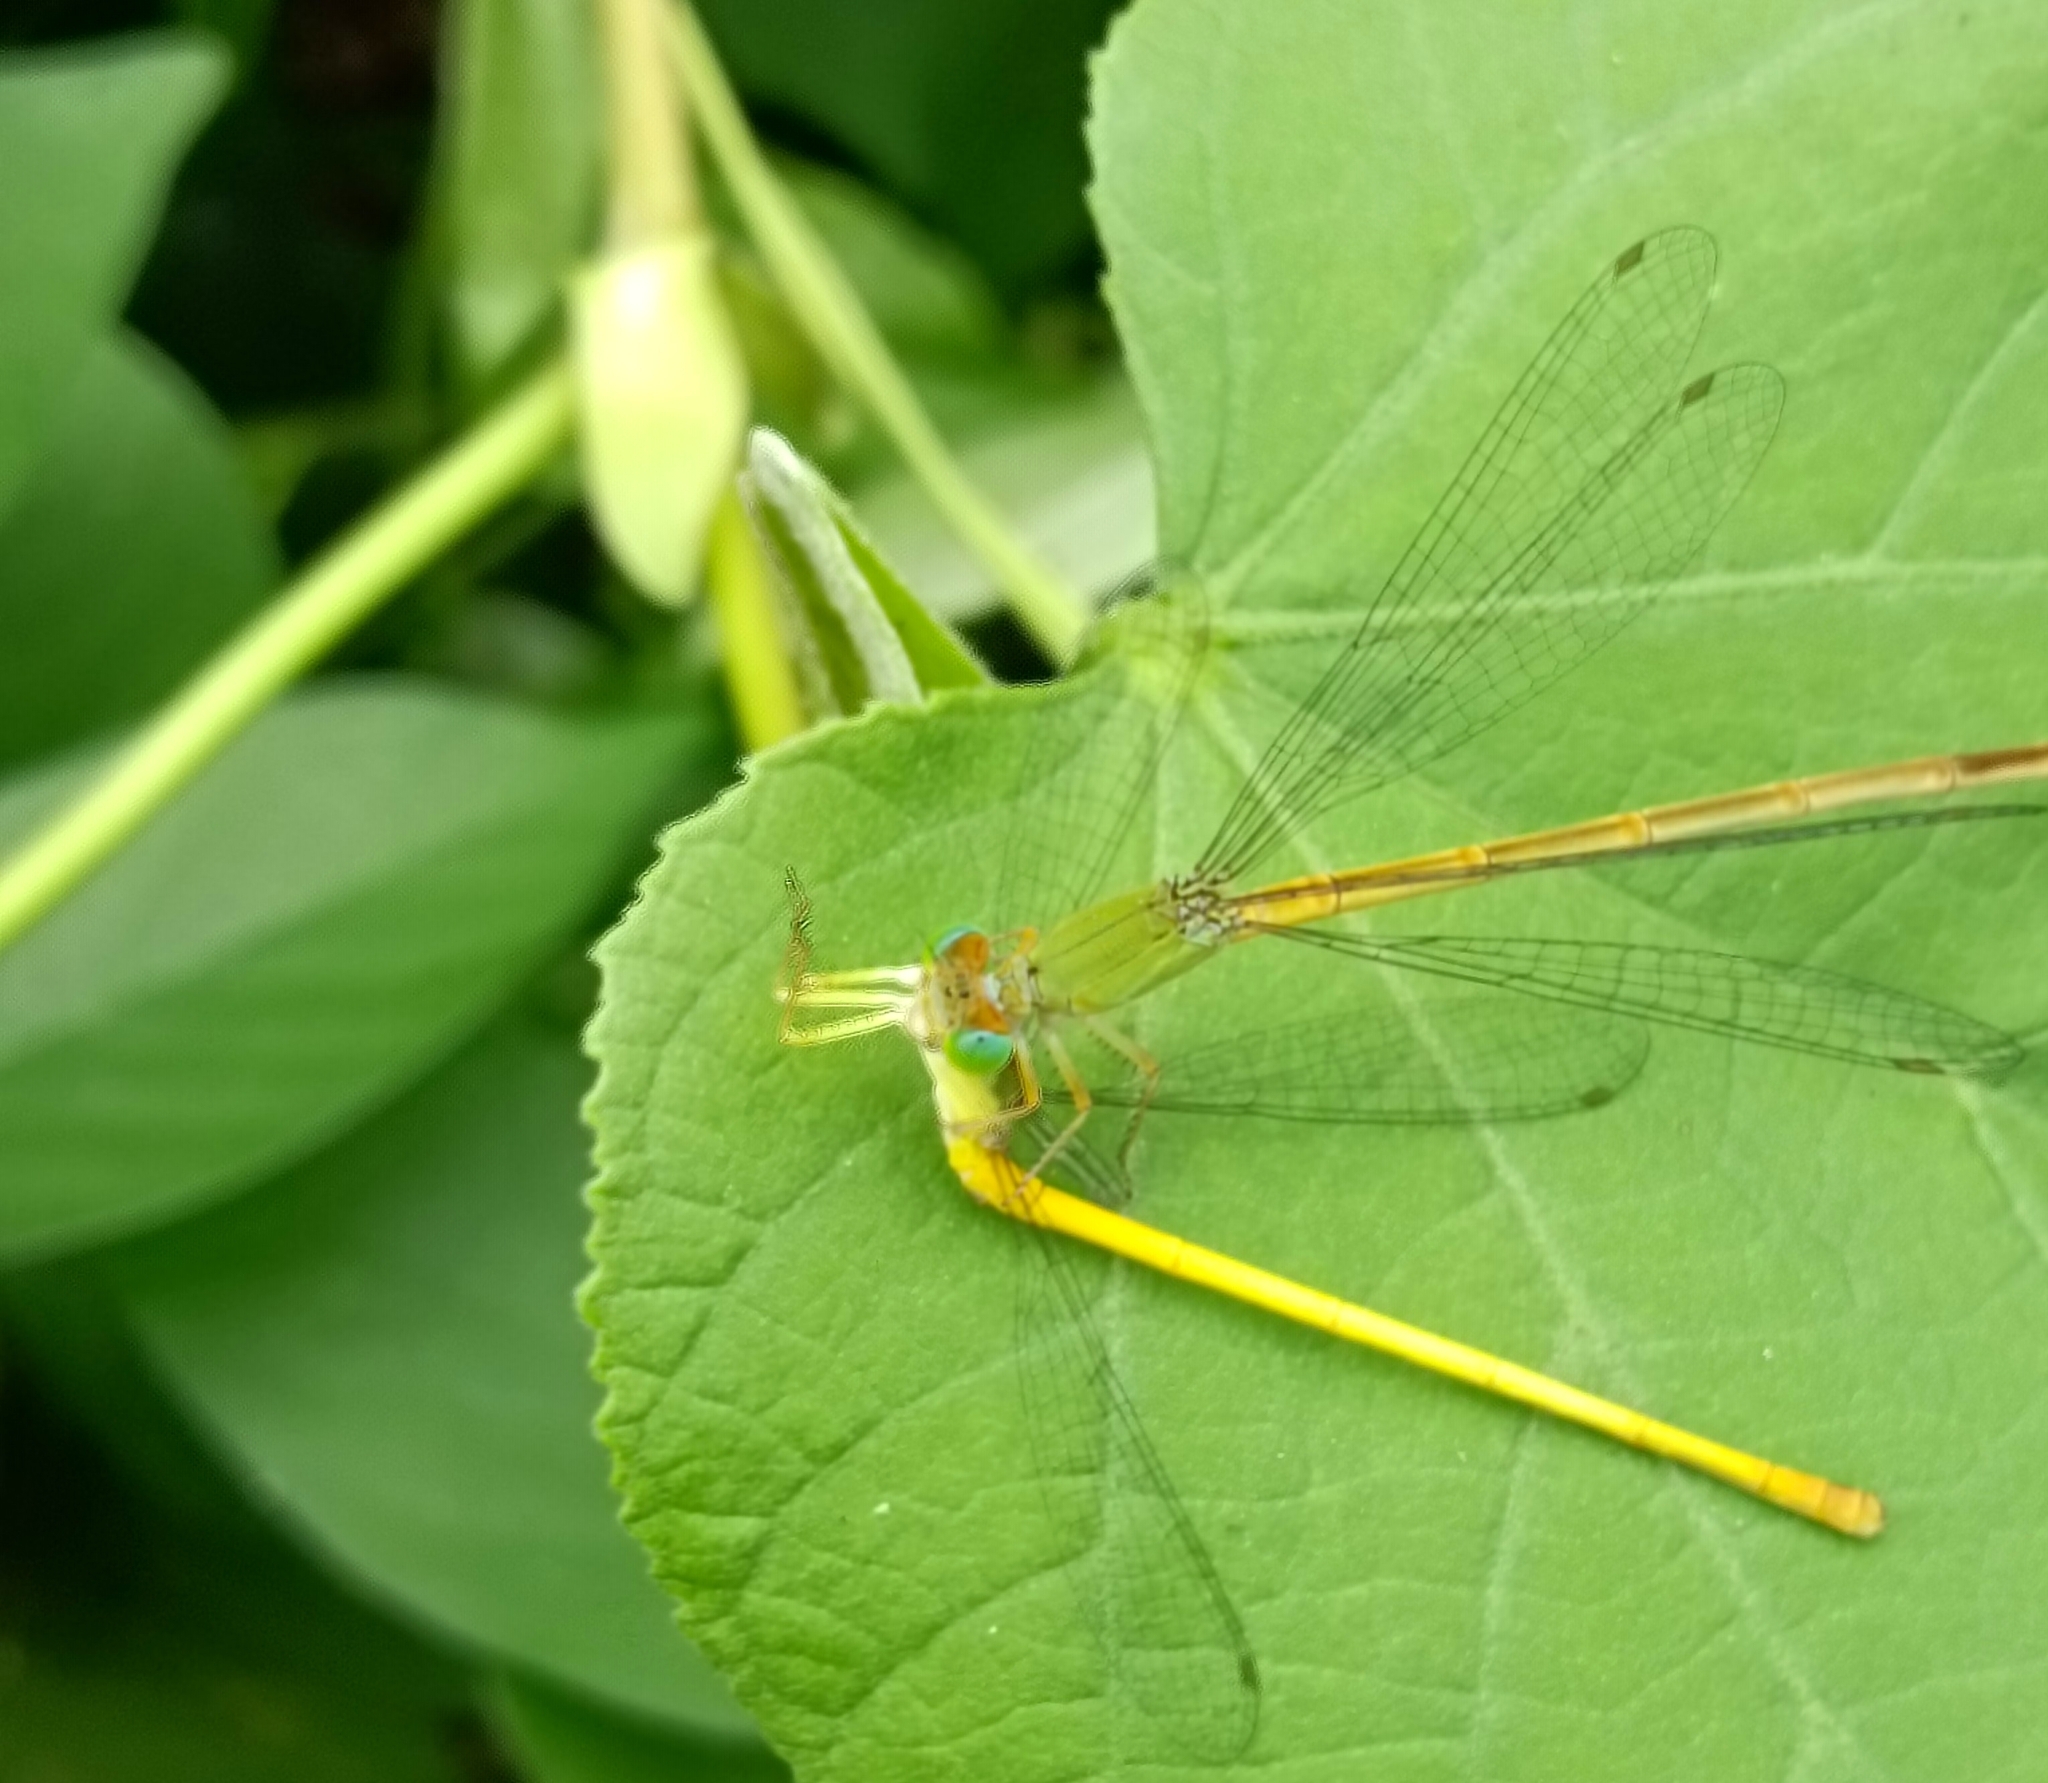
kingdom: Animalia
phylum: Arthropoda
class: Insecta
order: Odonata
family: Coenagrionidae
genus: Ceriagrion
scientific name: Ceriagrion coromandelianum
